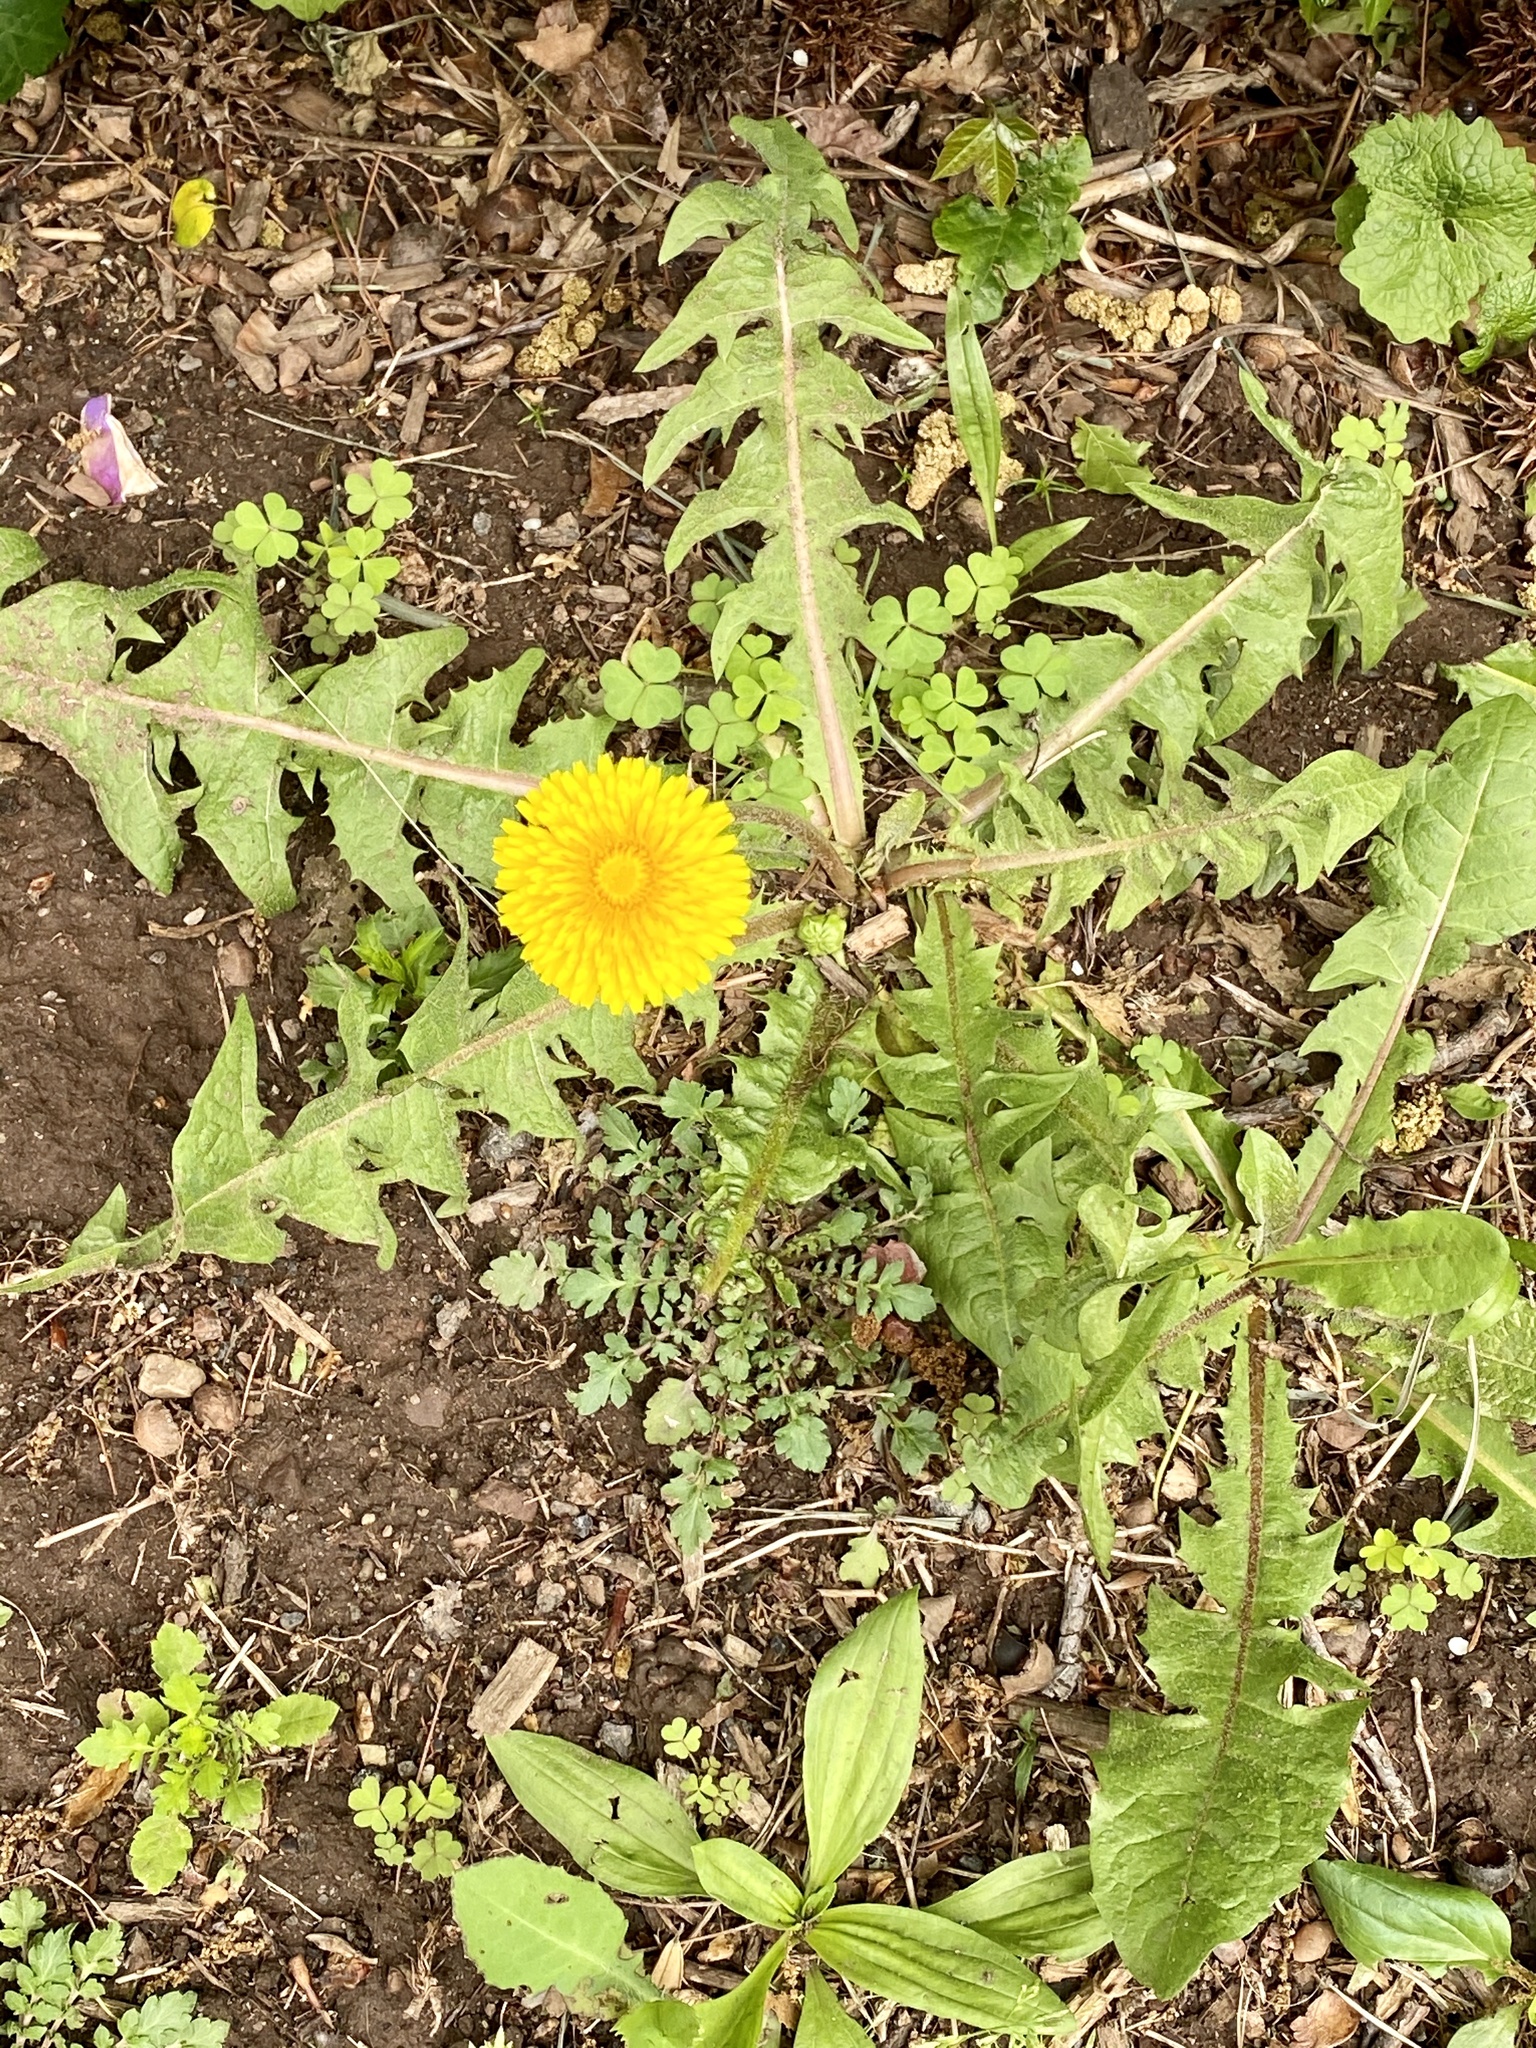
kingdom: Plantae
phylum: Tracheophyta
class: Magnoliopsida
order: Asterales
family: Asteraceae
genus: Taraxacum
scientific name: Taraxacum
